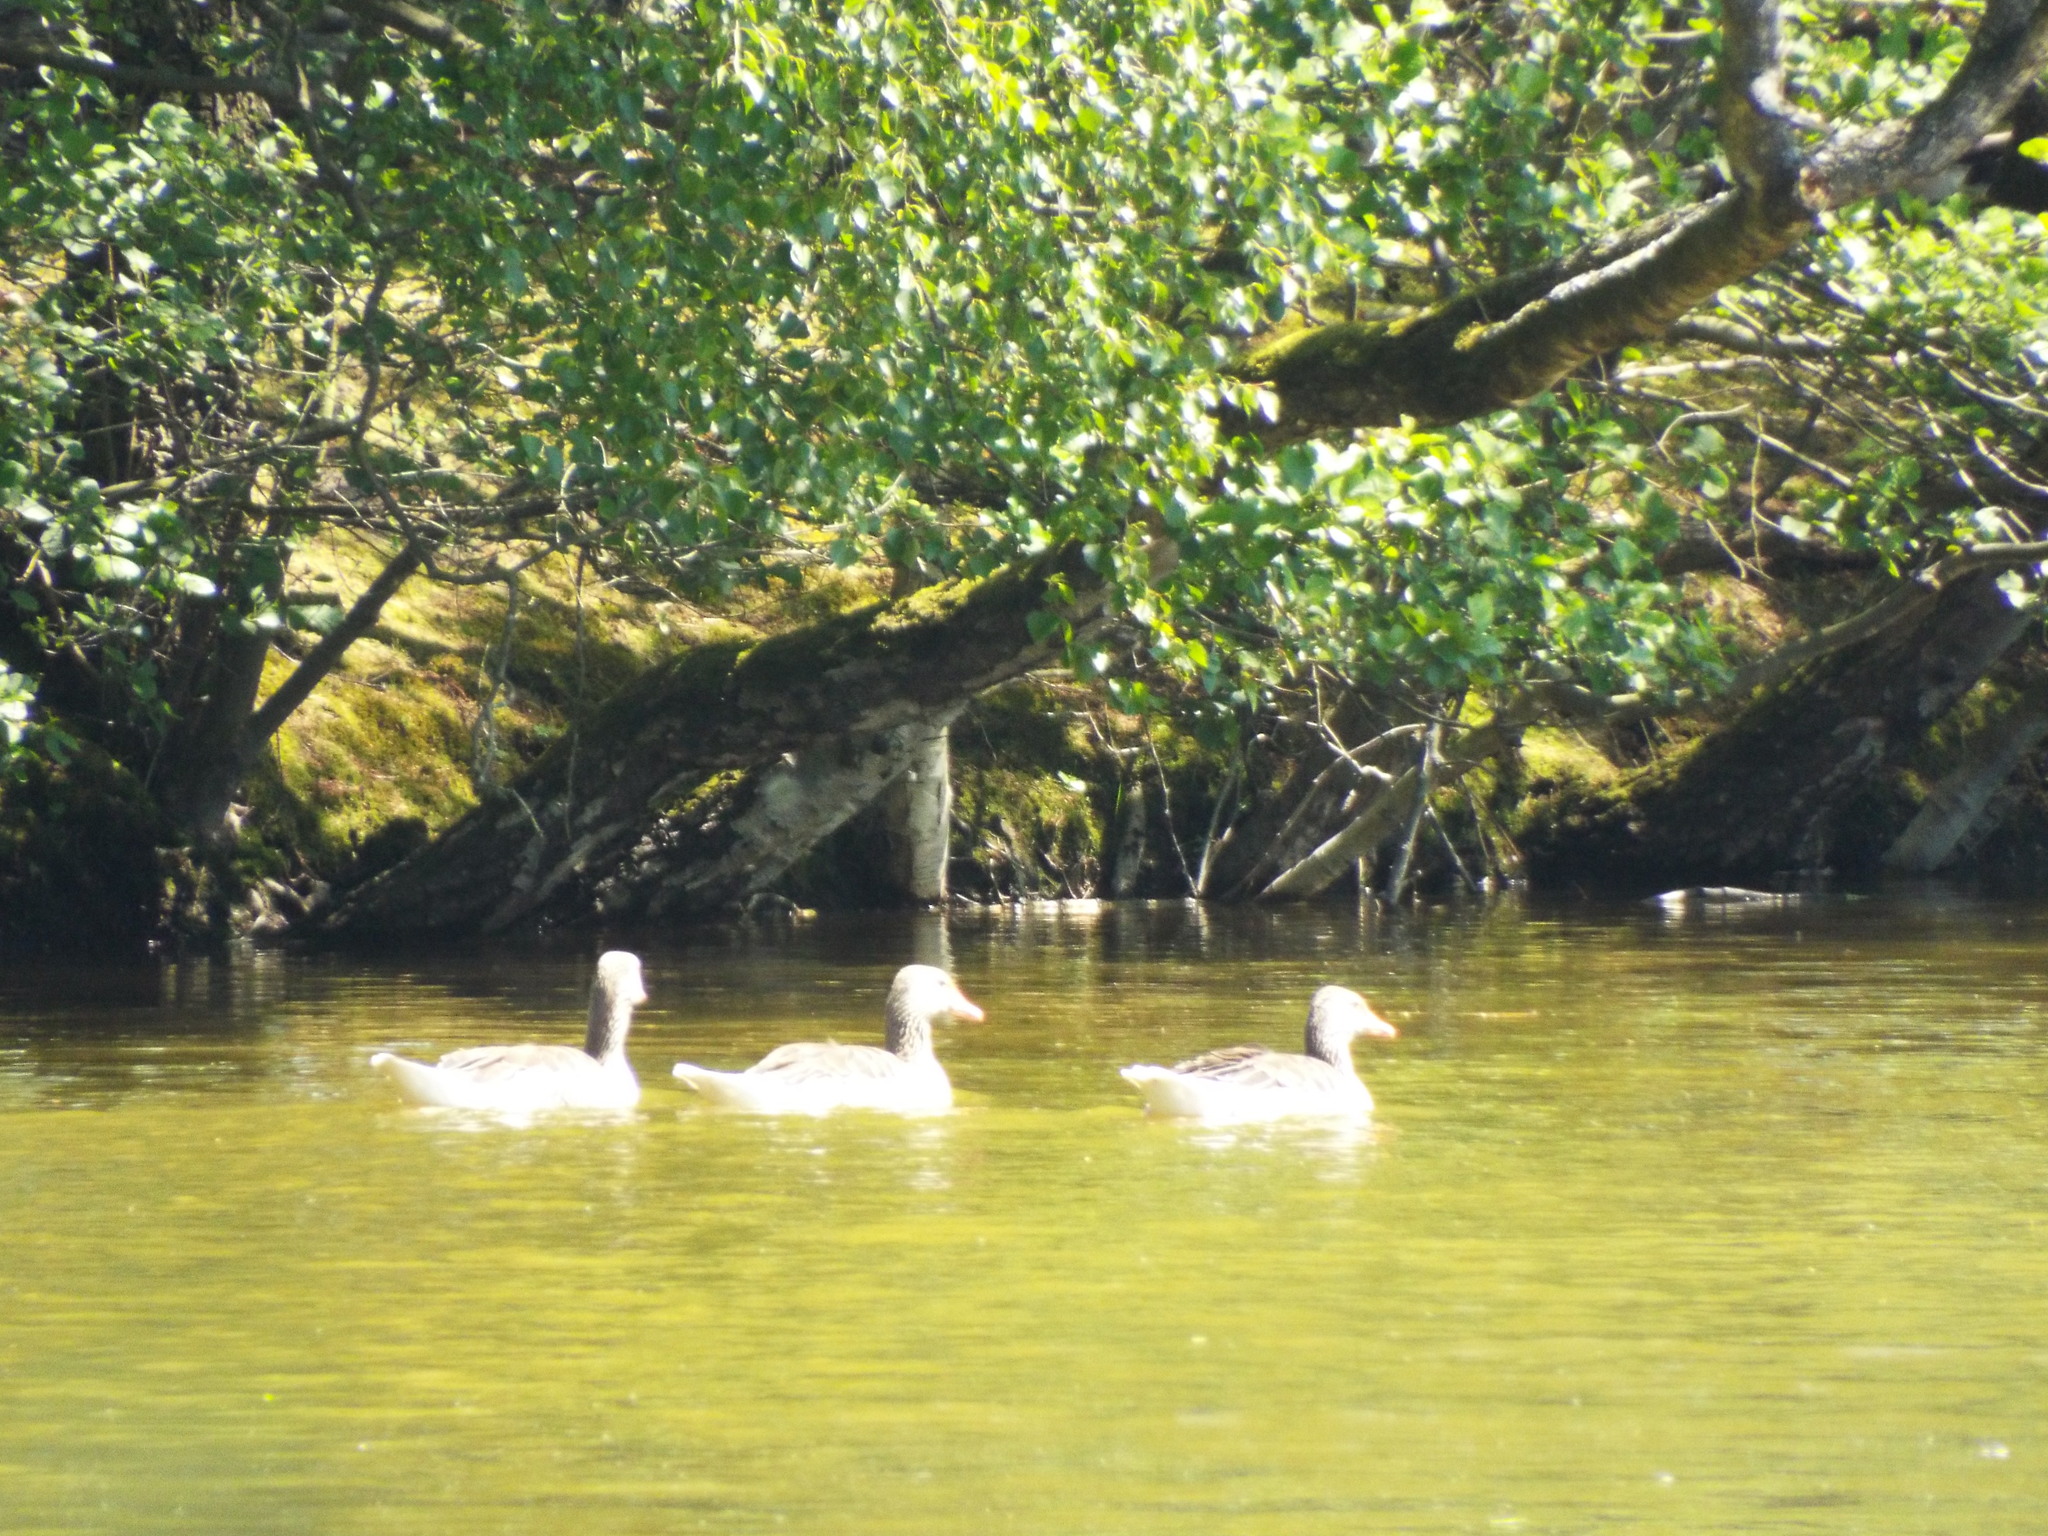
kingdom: Animalia
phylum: Chordata
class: Aves
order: Anseriformes
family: Anatidae
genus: Anser
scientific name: Anser anser
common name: Greylag goose
